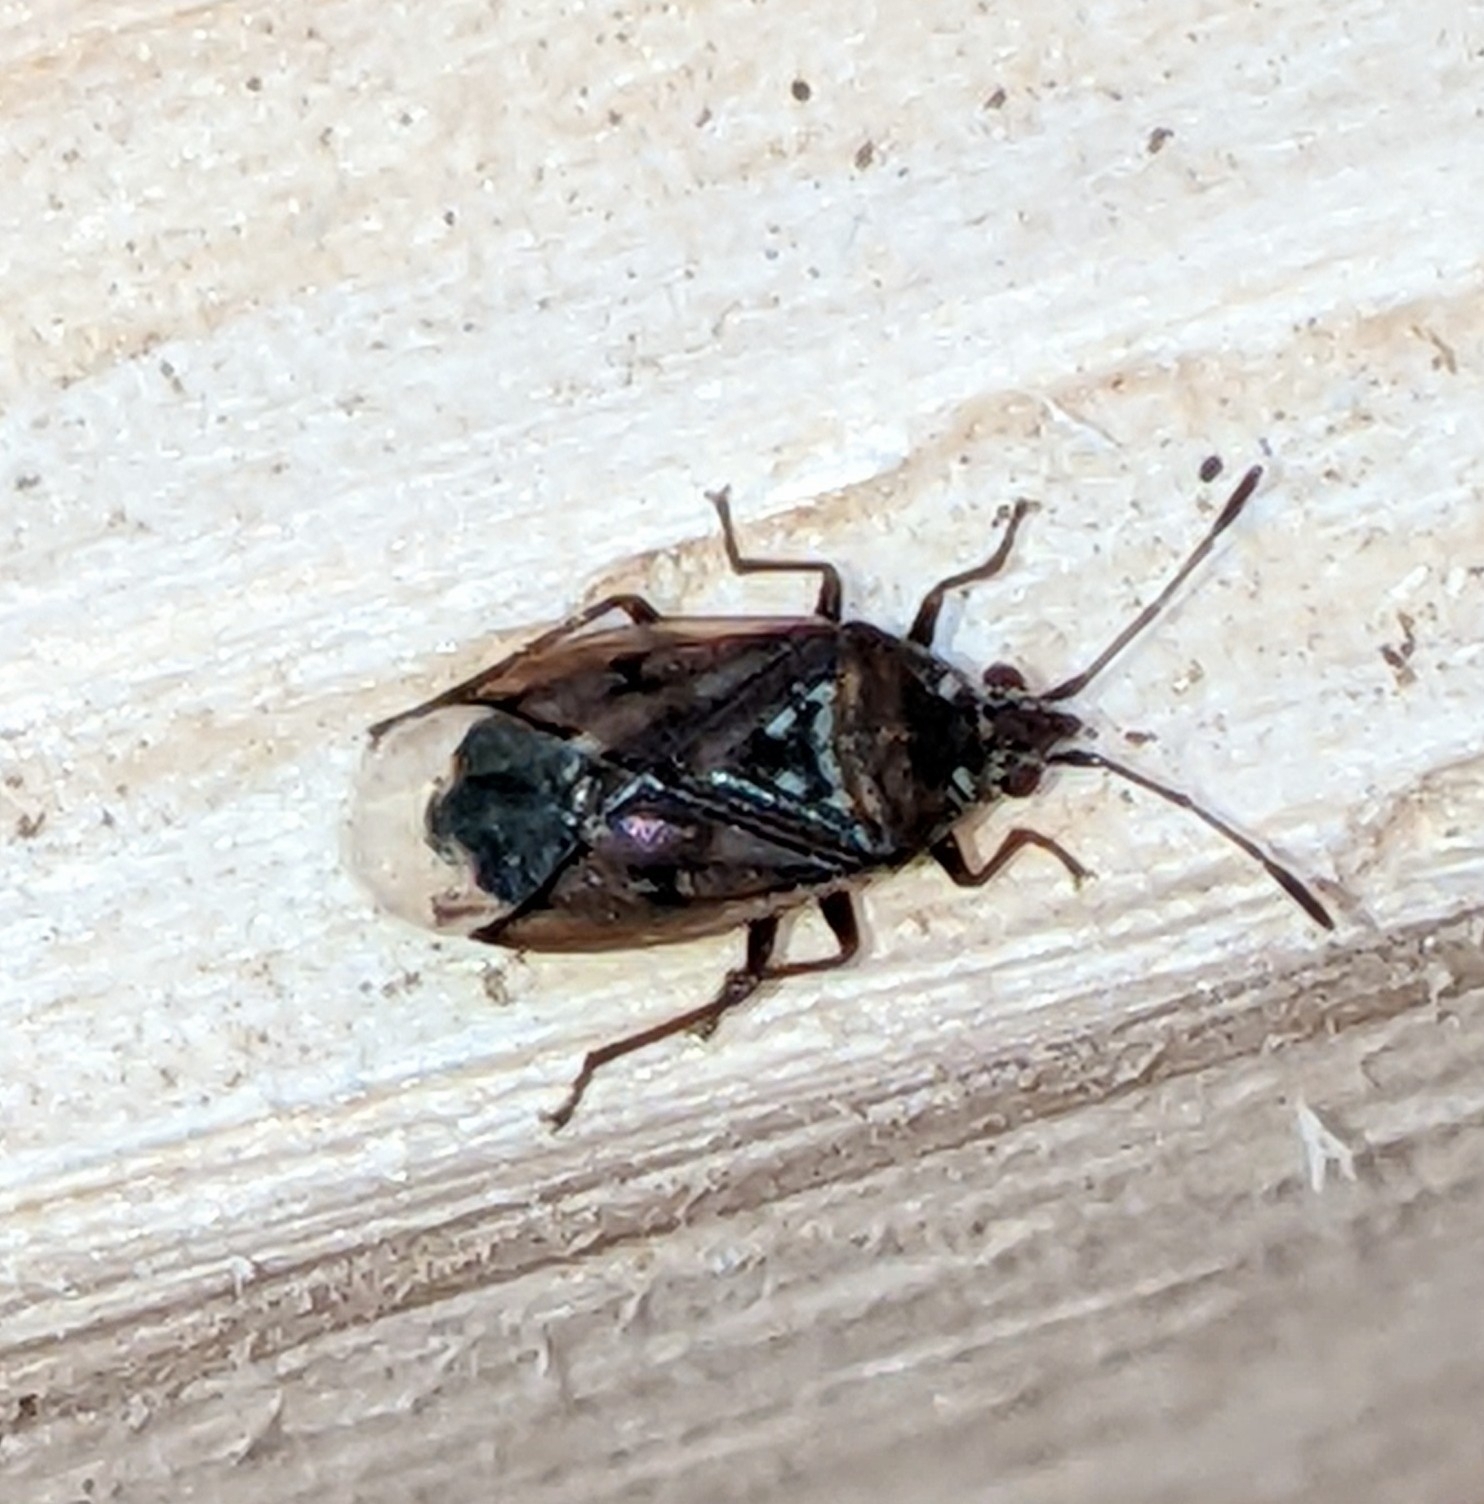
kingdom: Animalia
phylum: Arthropoda
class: Insecta
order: Hemiptera
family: Lygaeidae
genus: Kleidocerys
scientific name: Kleidocerys resedae
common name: Birch catkin bug
